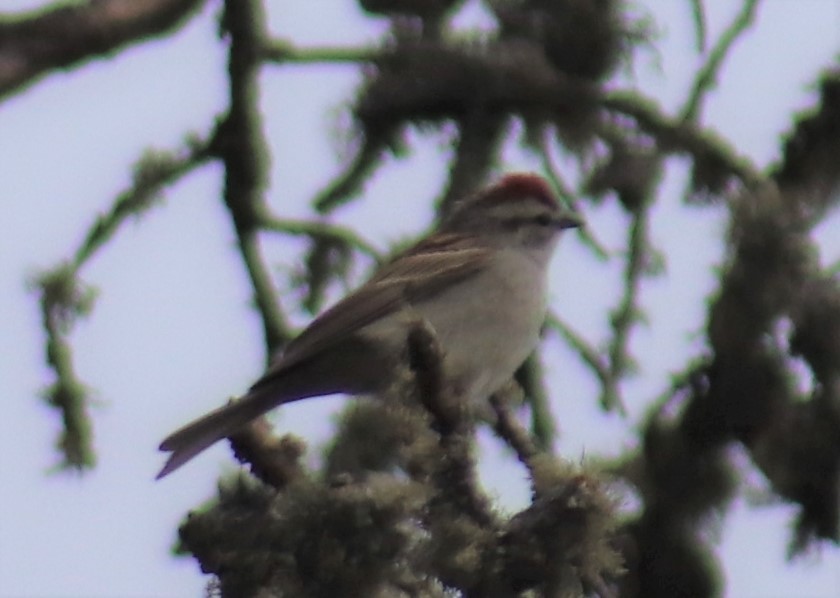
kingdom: Animalia
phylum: Chordata
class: Aves
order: Passeriformes
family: Passerellidae
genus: Spizella
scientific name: Spizella passerina
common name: Chipping sparrow
